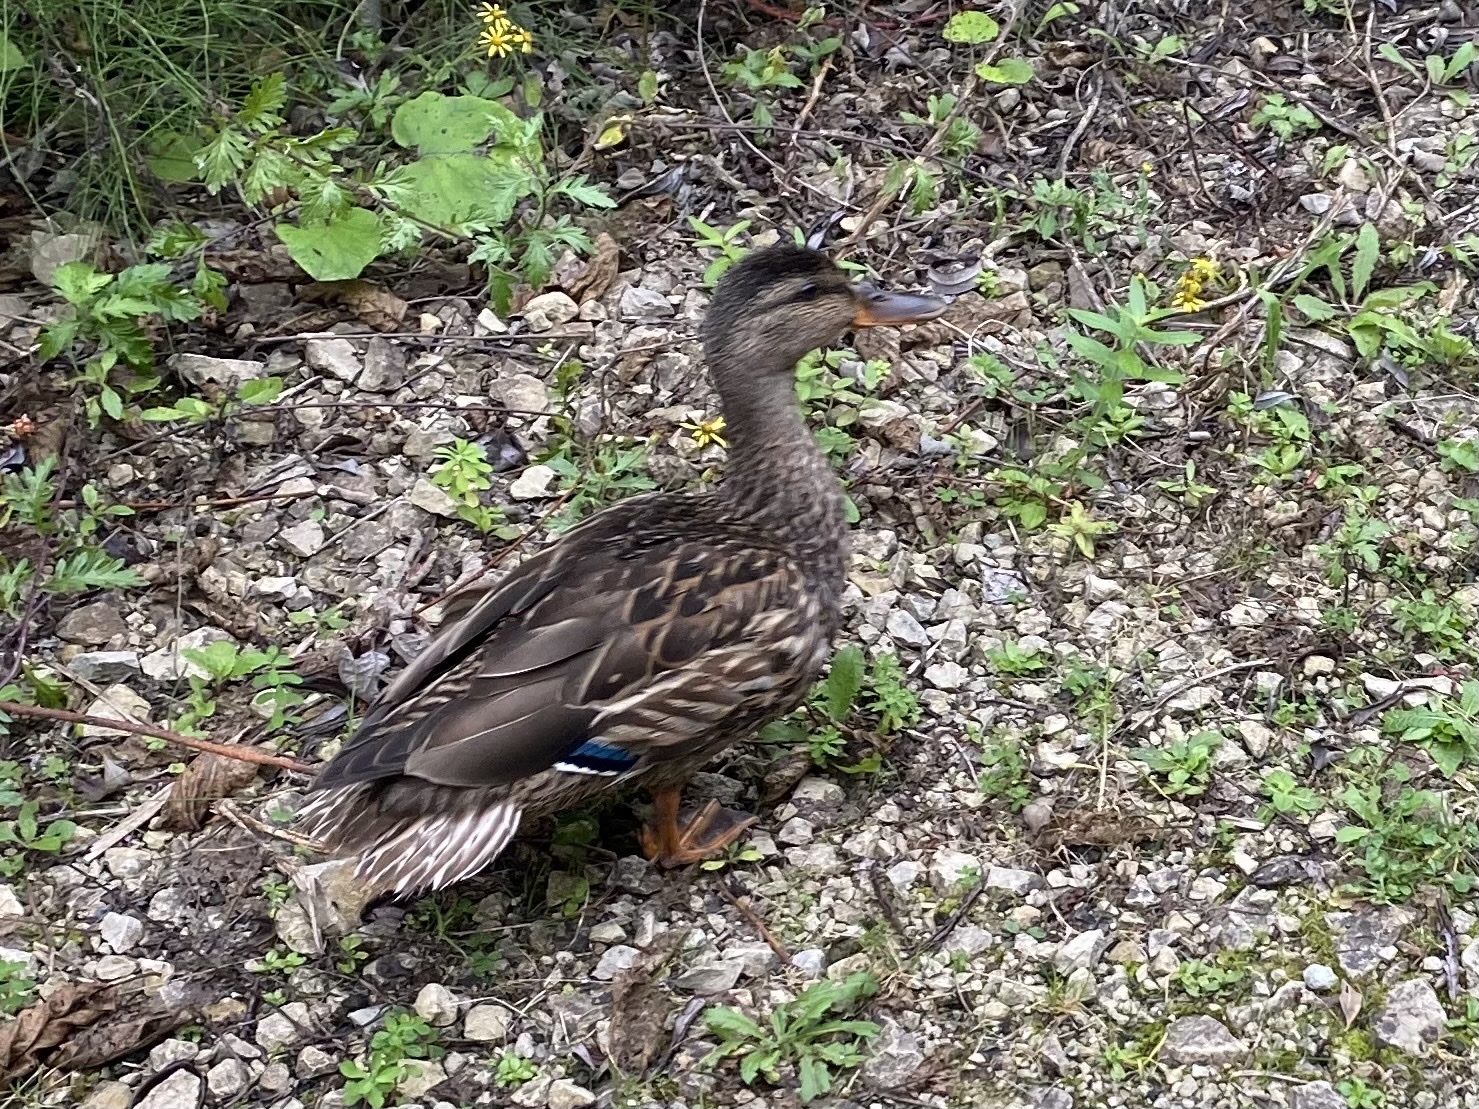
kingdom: Animalia
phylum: Chordata
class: Aves
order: Anseriformes
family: Anatidae
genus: Anas
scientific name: Anas platyrhynchos
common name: Mallard
